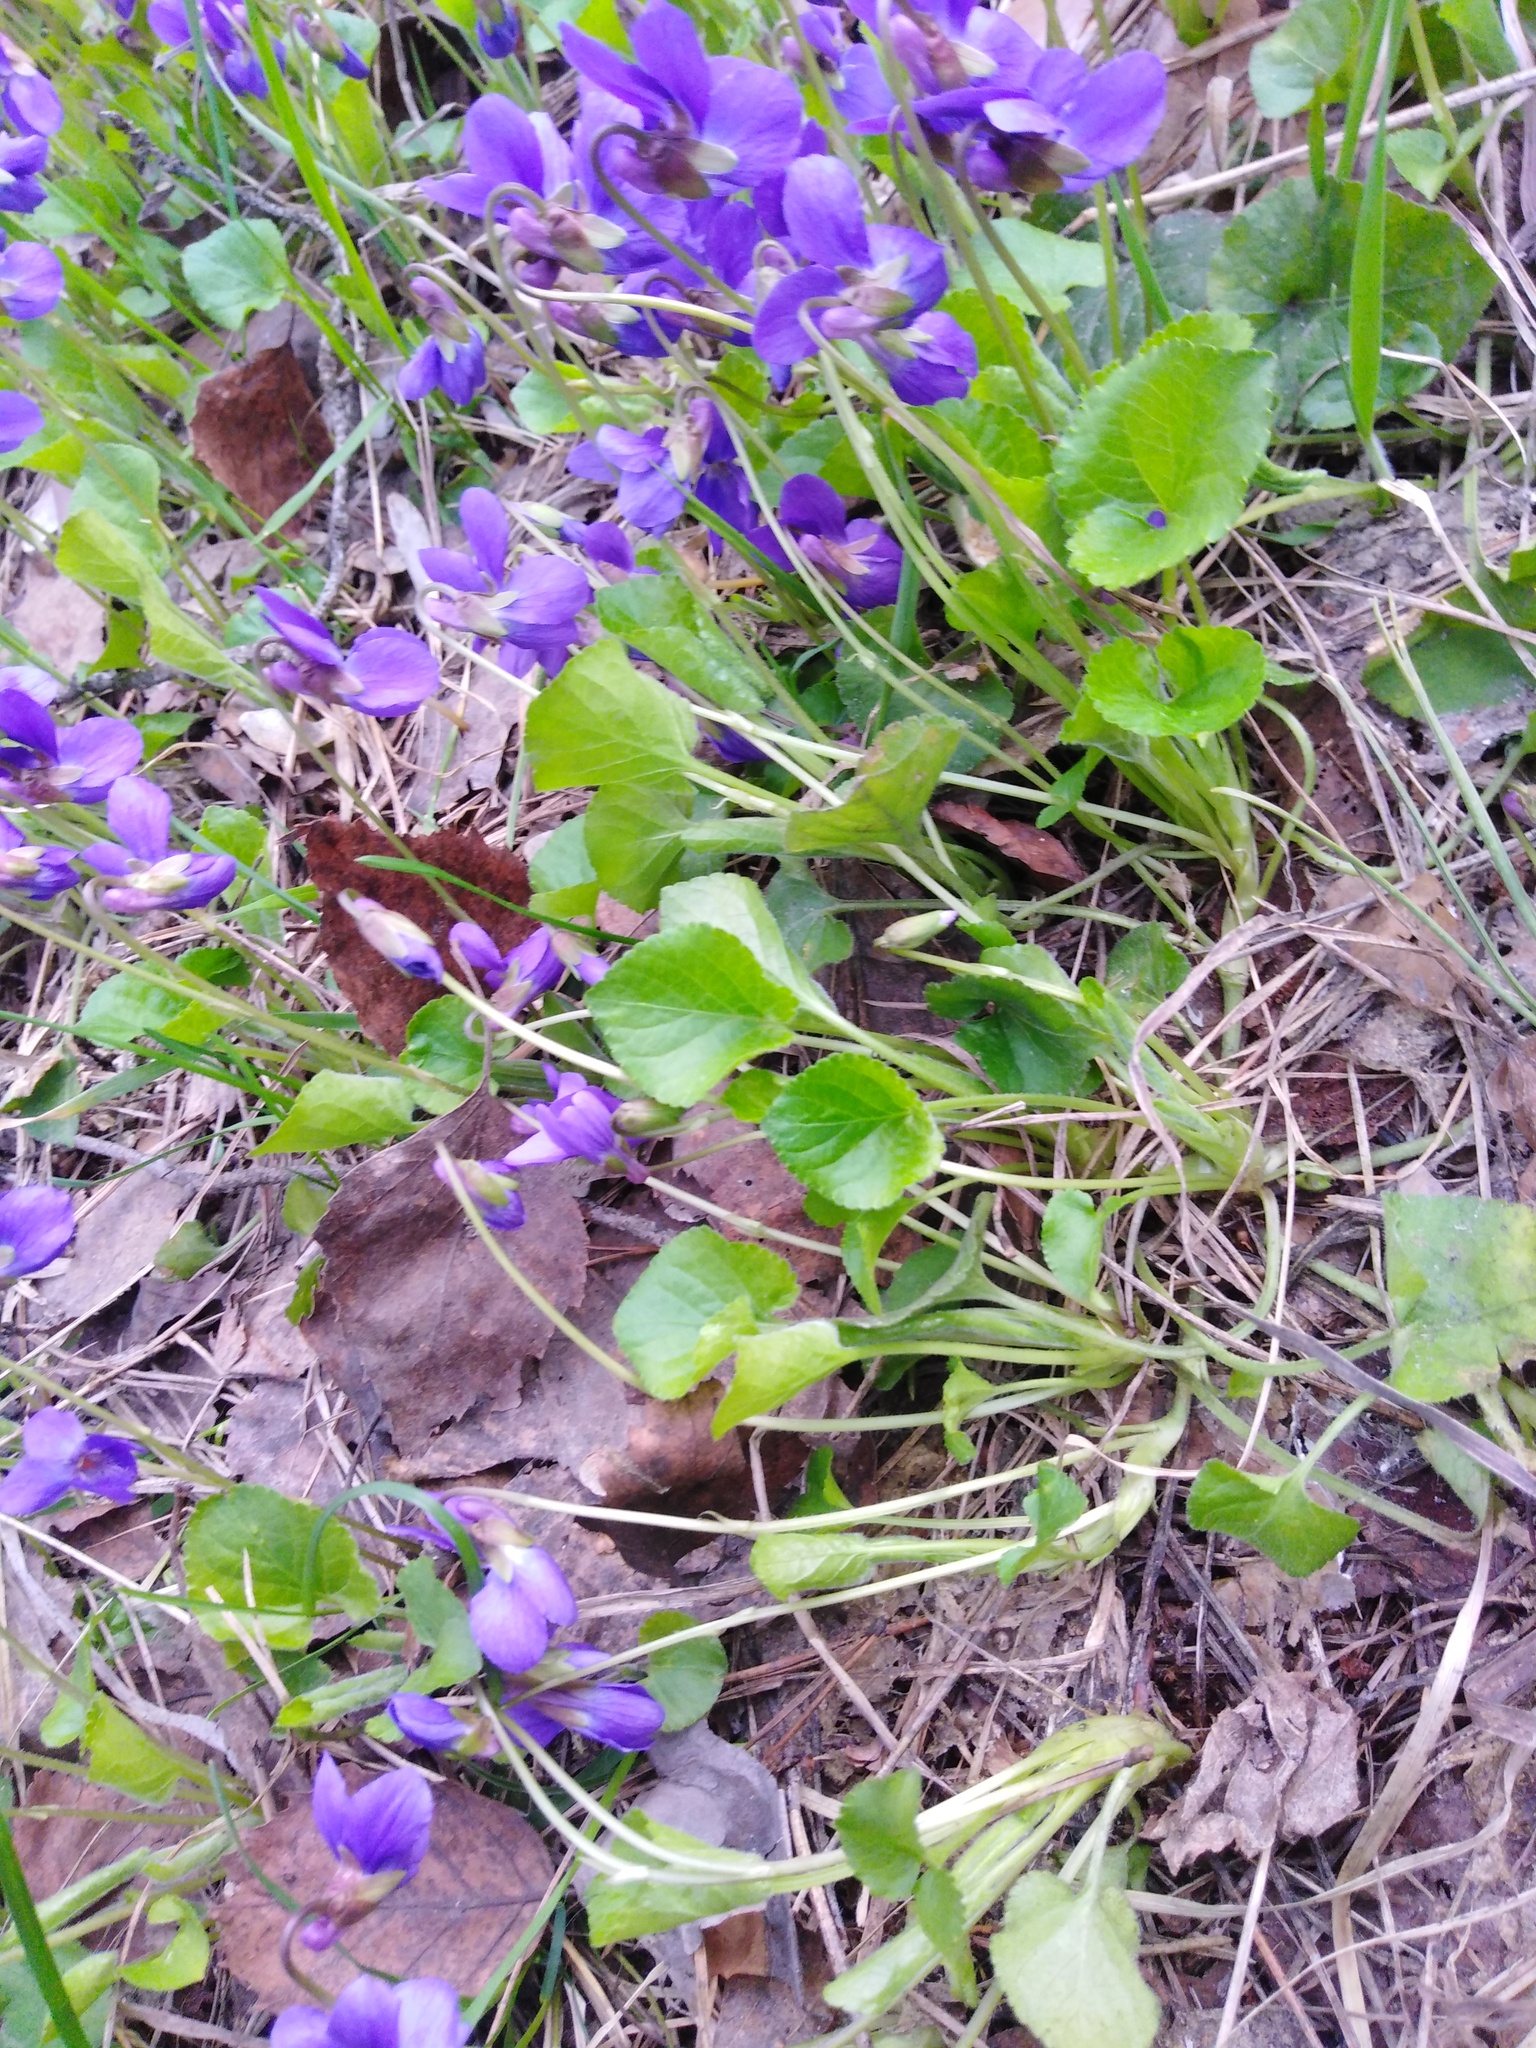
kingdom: Plantae
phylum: Tracheophyta
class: Magnoliopsida
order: Malpighiales
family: Violaceae
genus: Viola
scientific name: Viola odorata
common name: Sweet violet
